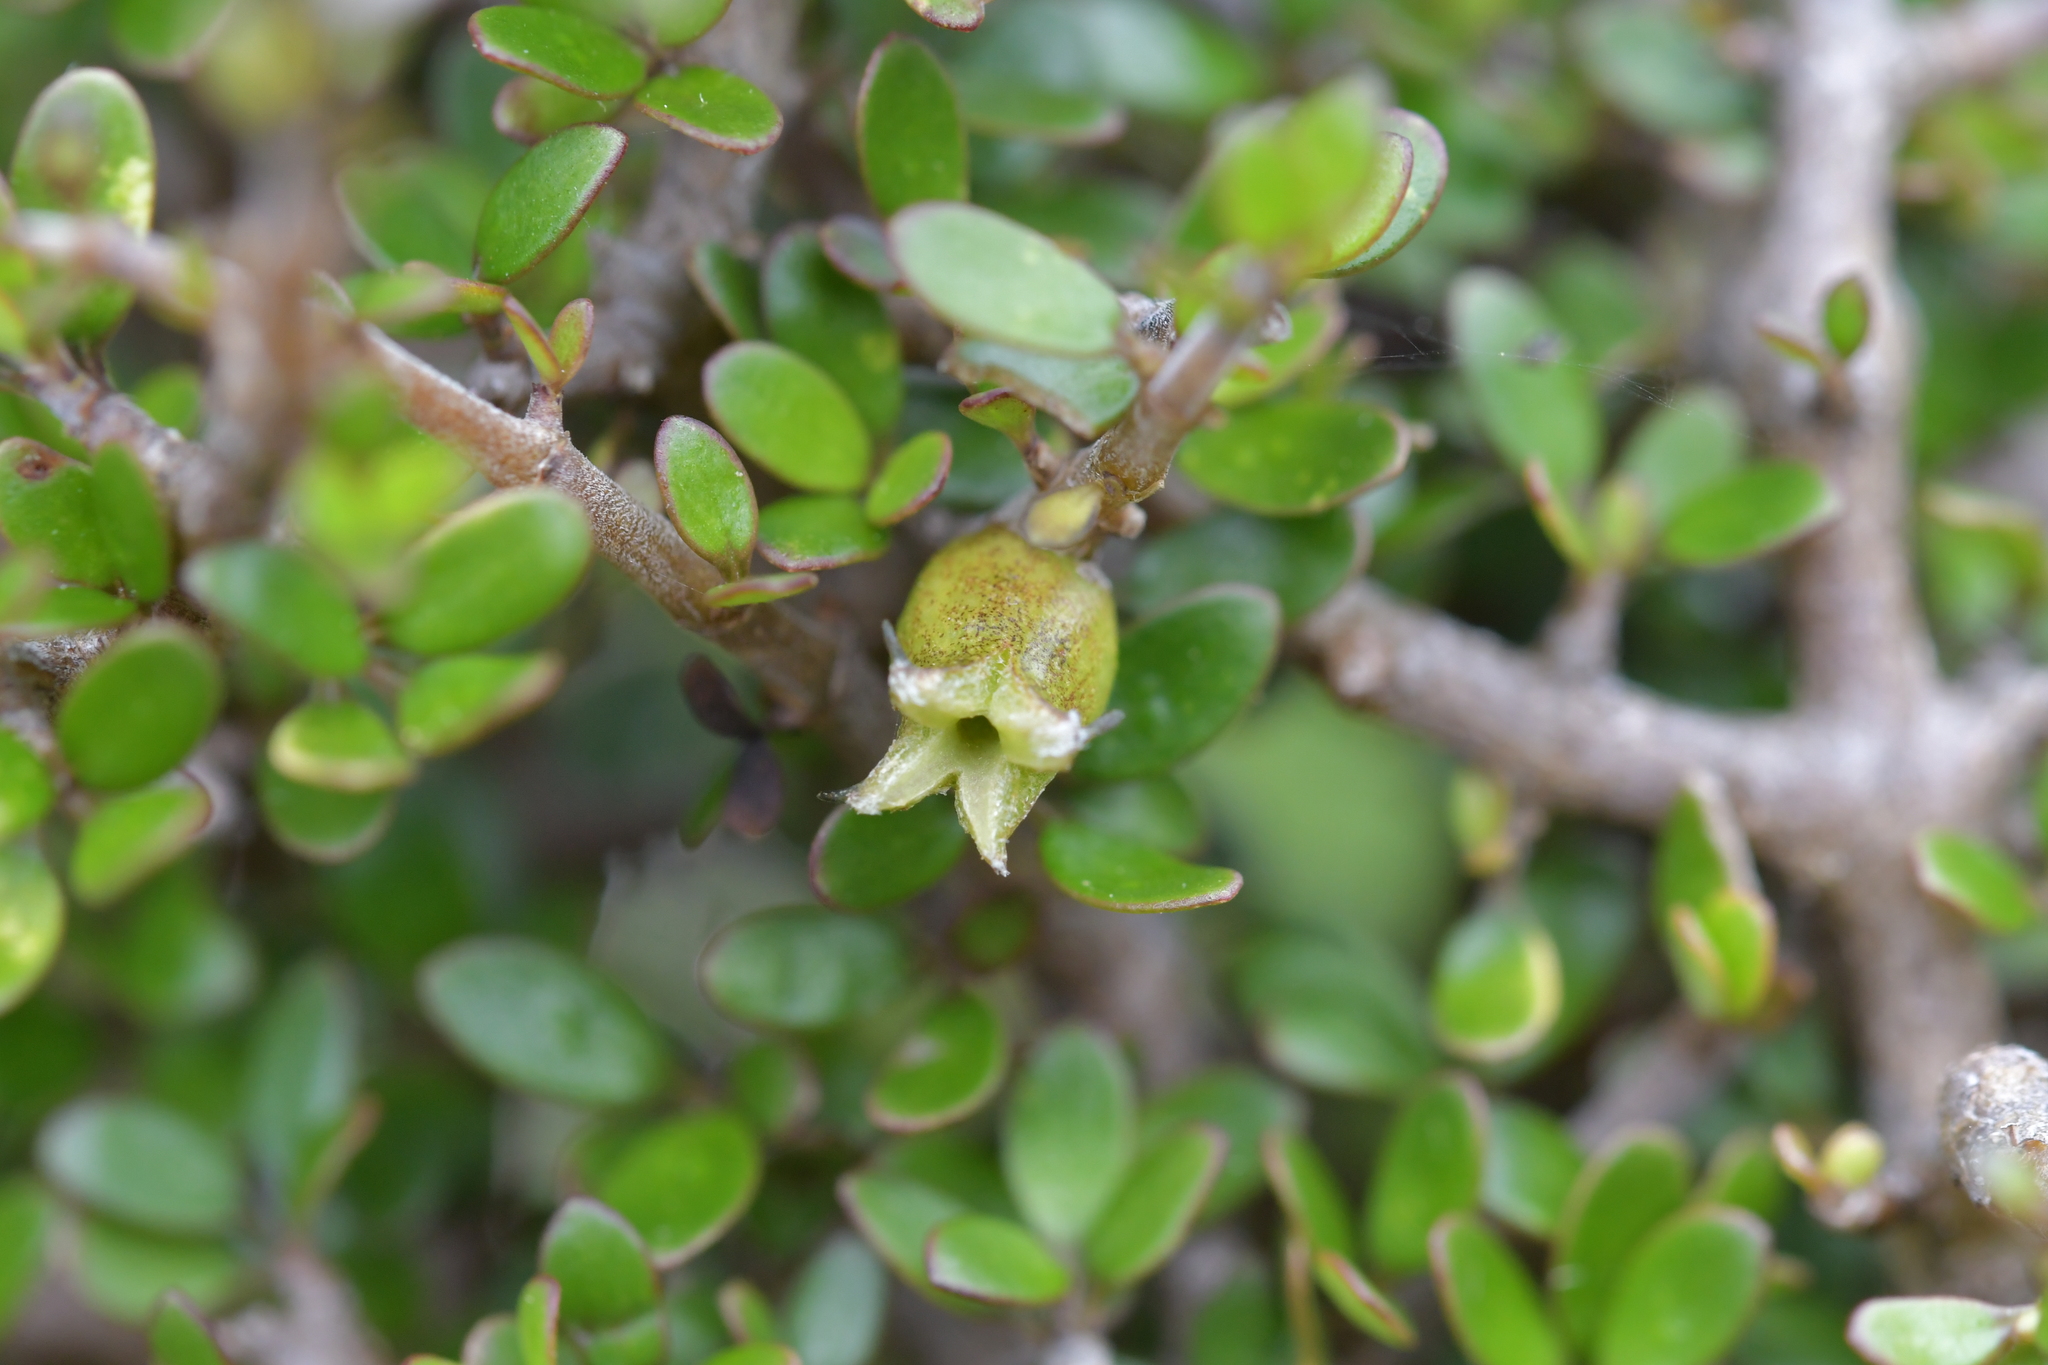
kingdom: Animalia
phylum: Arthropoda
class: Insecta
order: Diptera
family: Cecidomyiidae
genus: Oligotrophus
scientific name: Oligotrophus coprosmae
